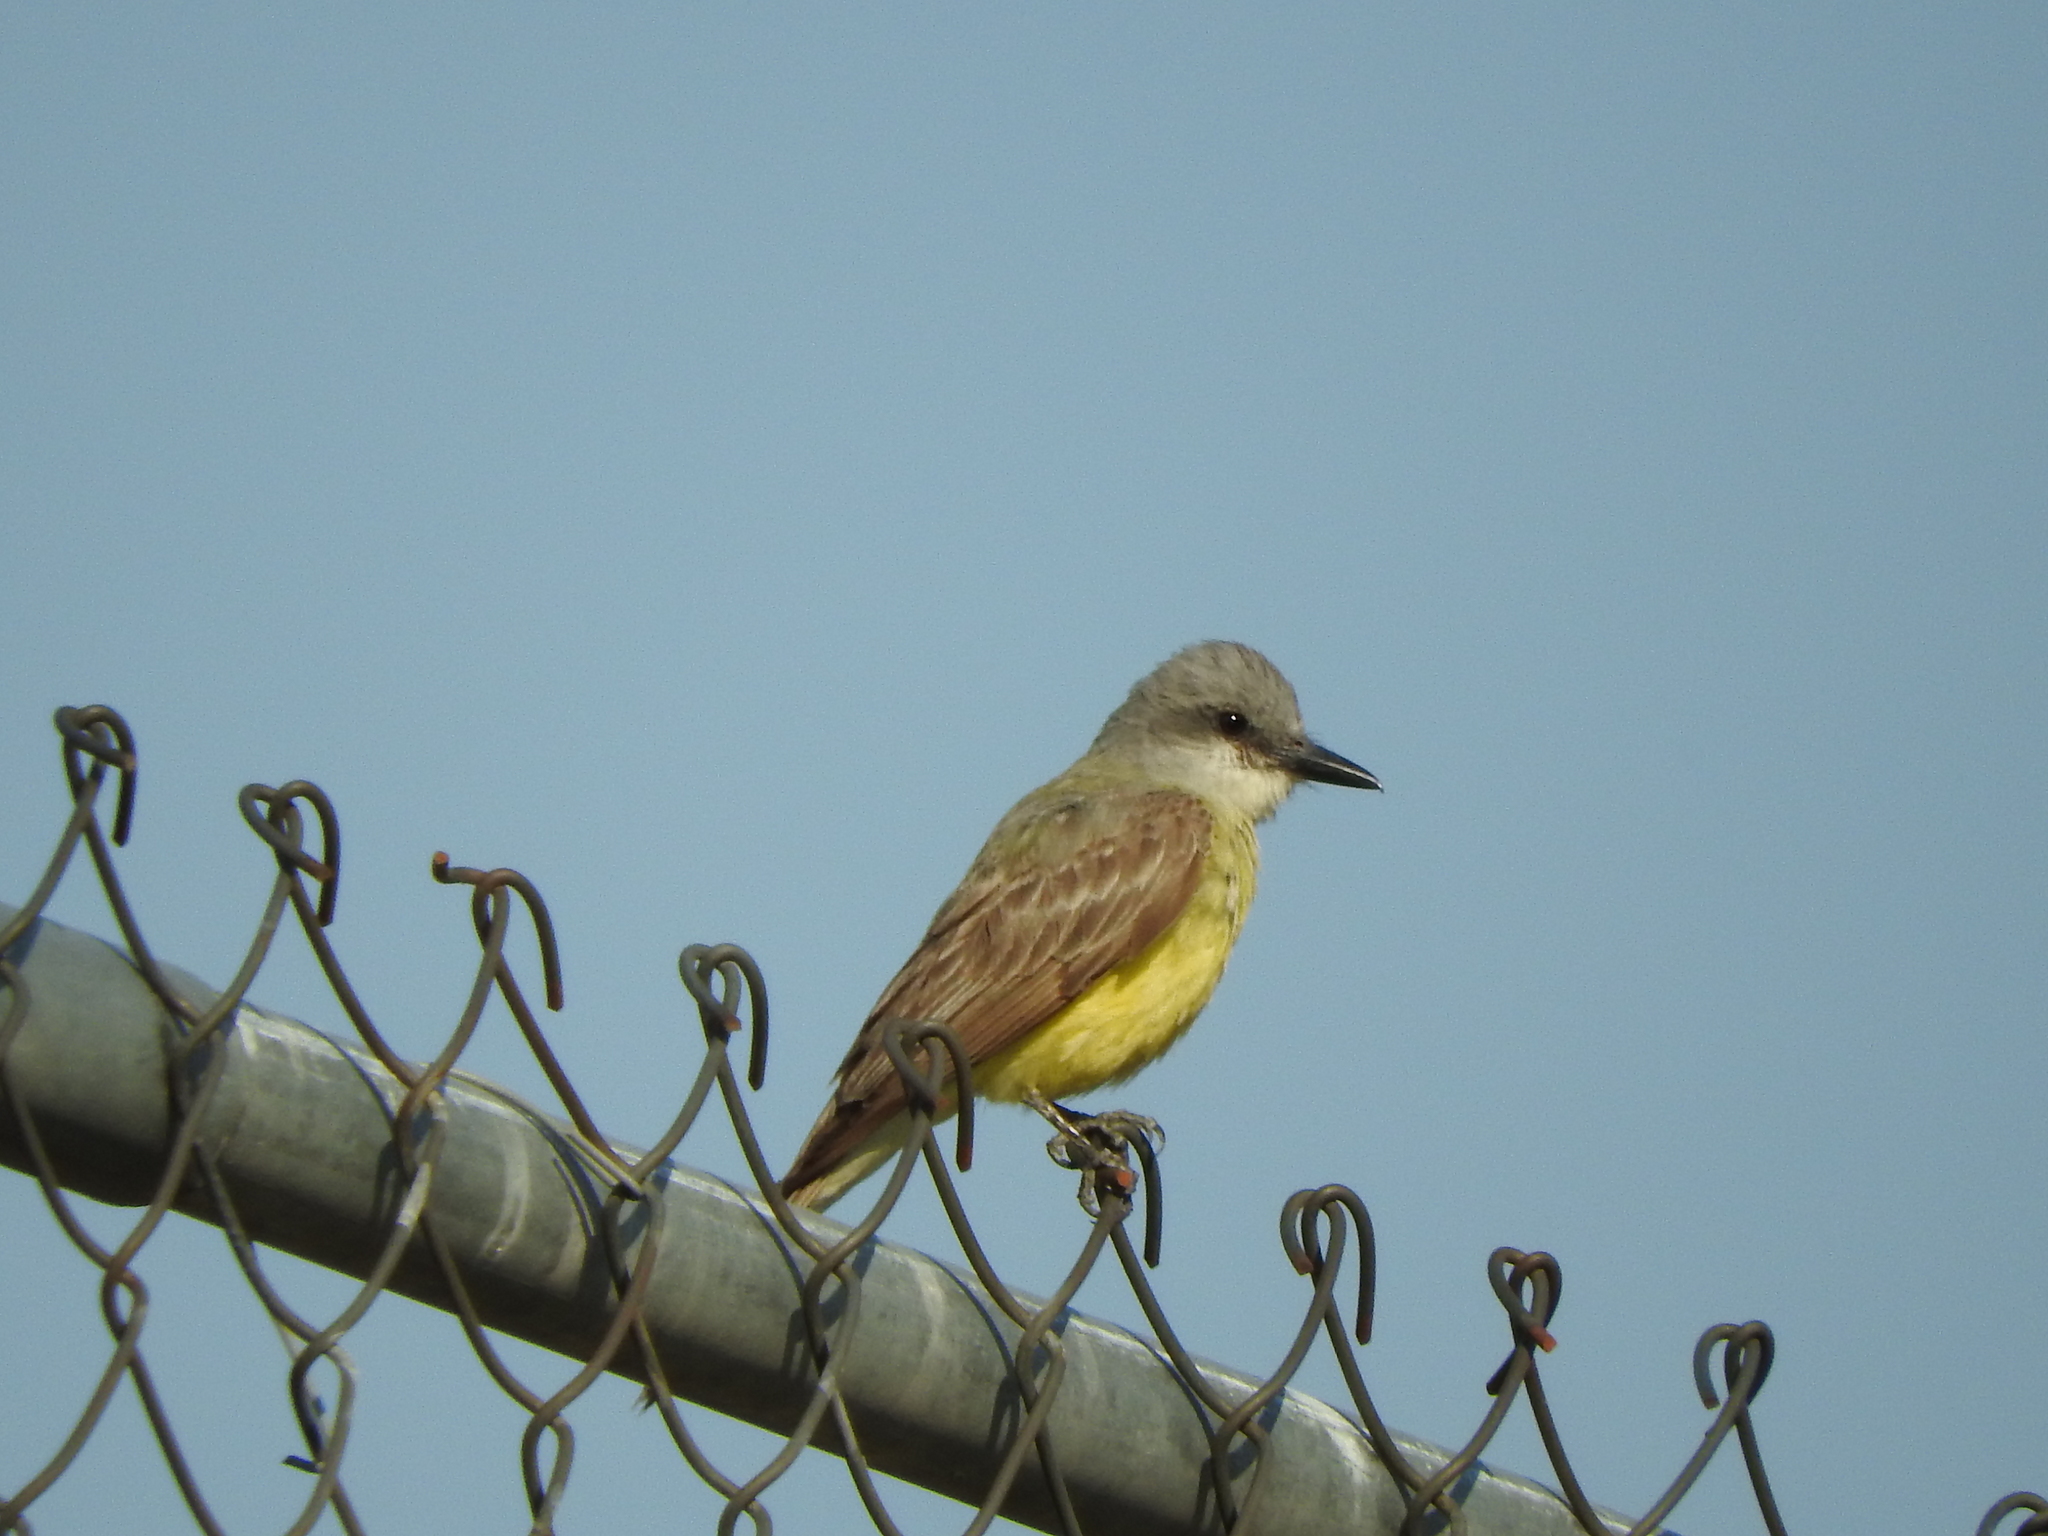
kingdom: Animalia
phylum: Chordata
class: Aves
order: Passeriformes
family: Tyrannidae
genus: Tyrannus
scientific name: Tyrannus melancholicus
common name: Tropical kingbird
